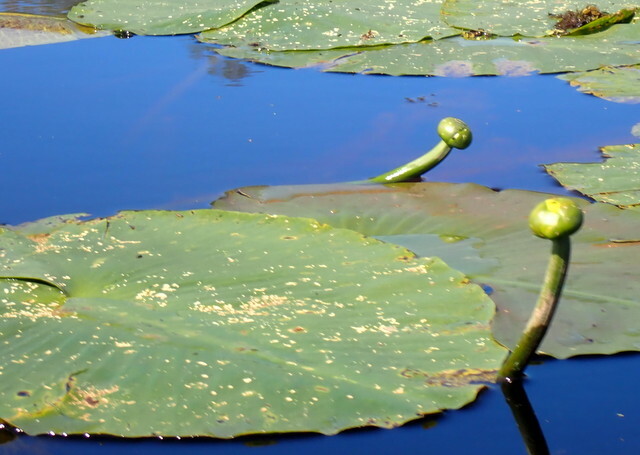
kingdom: Plantae
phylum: Tracheophyta
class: Magnoliopsida
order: Nymphaeales
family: Nymphaeaceae
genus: Nuphar
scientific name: Nuphar advena
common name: Spatter-dock
